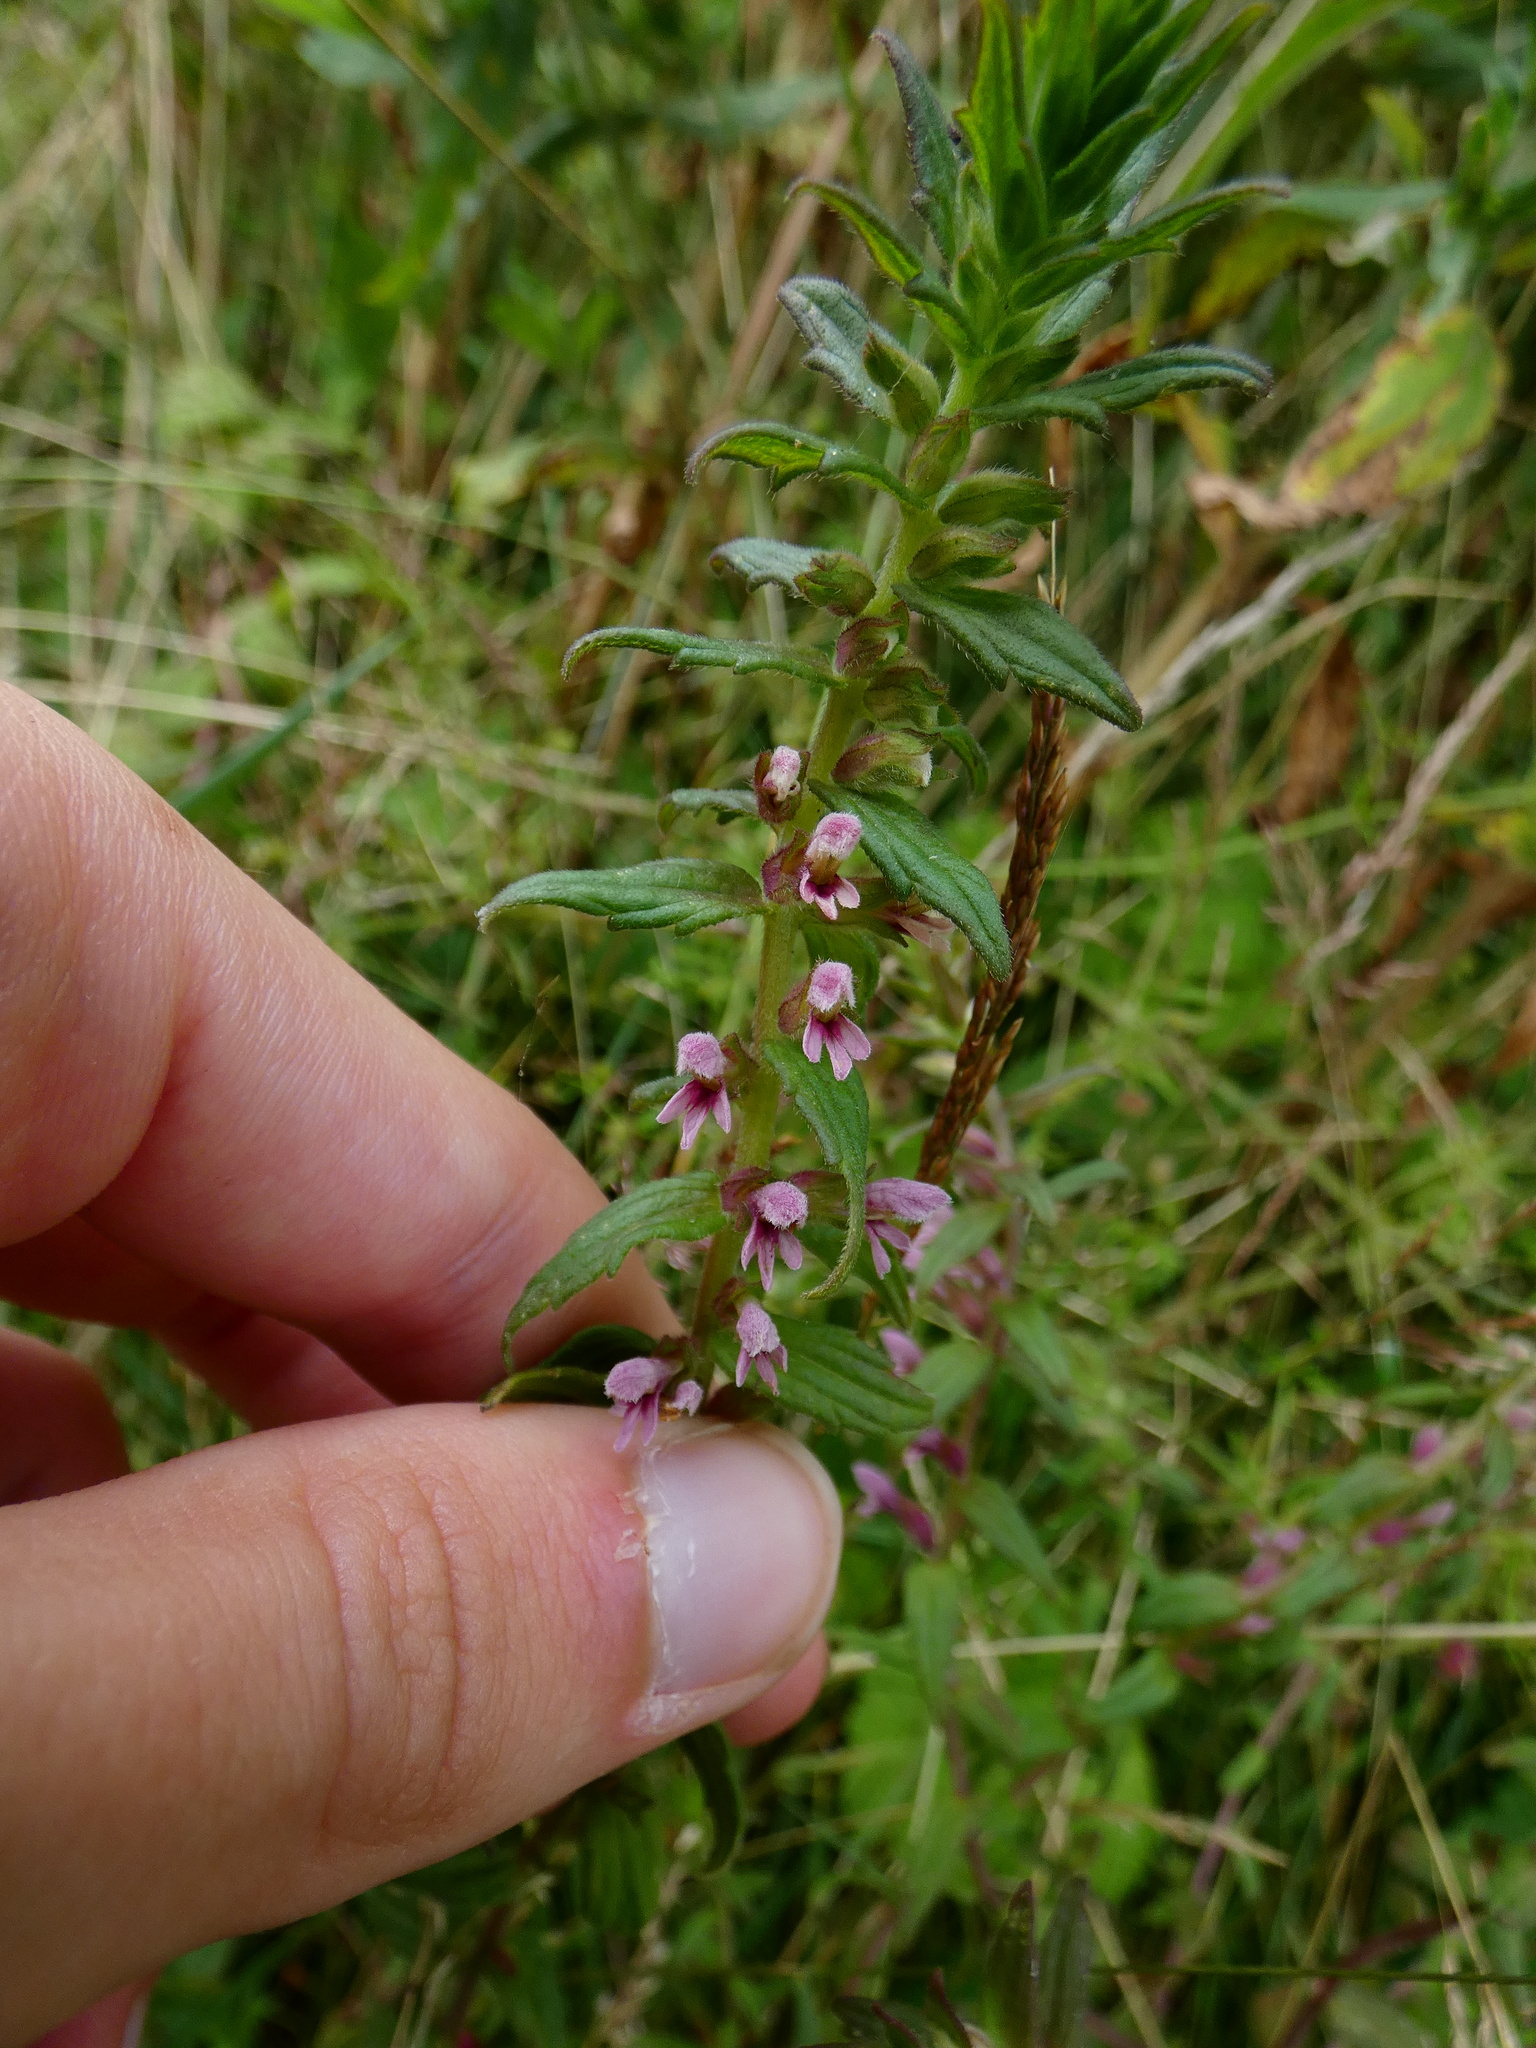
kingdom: Plantae
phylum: Tracheophyta
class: Magnoliopsida
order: Lamiales
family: Orobanchaceae
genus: Odontites
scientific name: Odontites vernus
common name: Red bartsia
